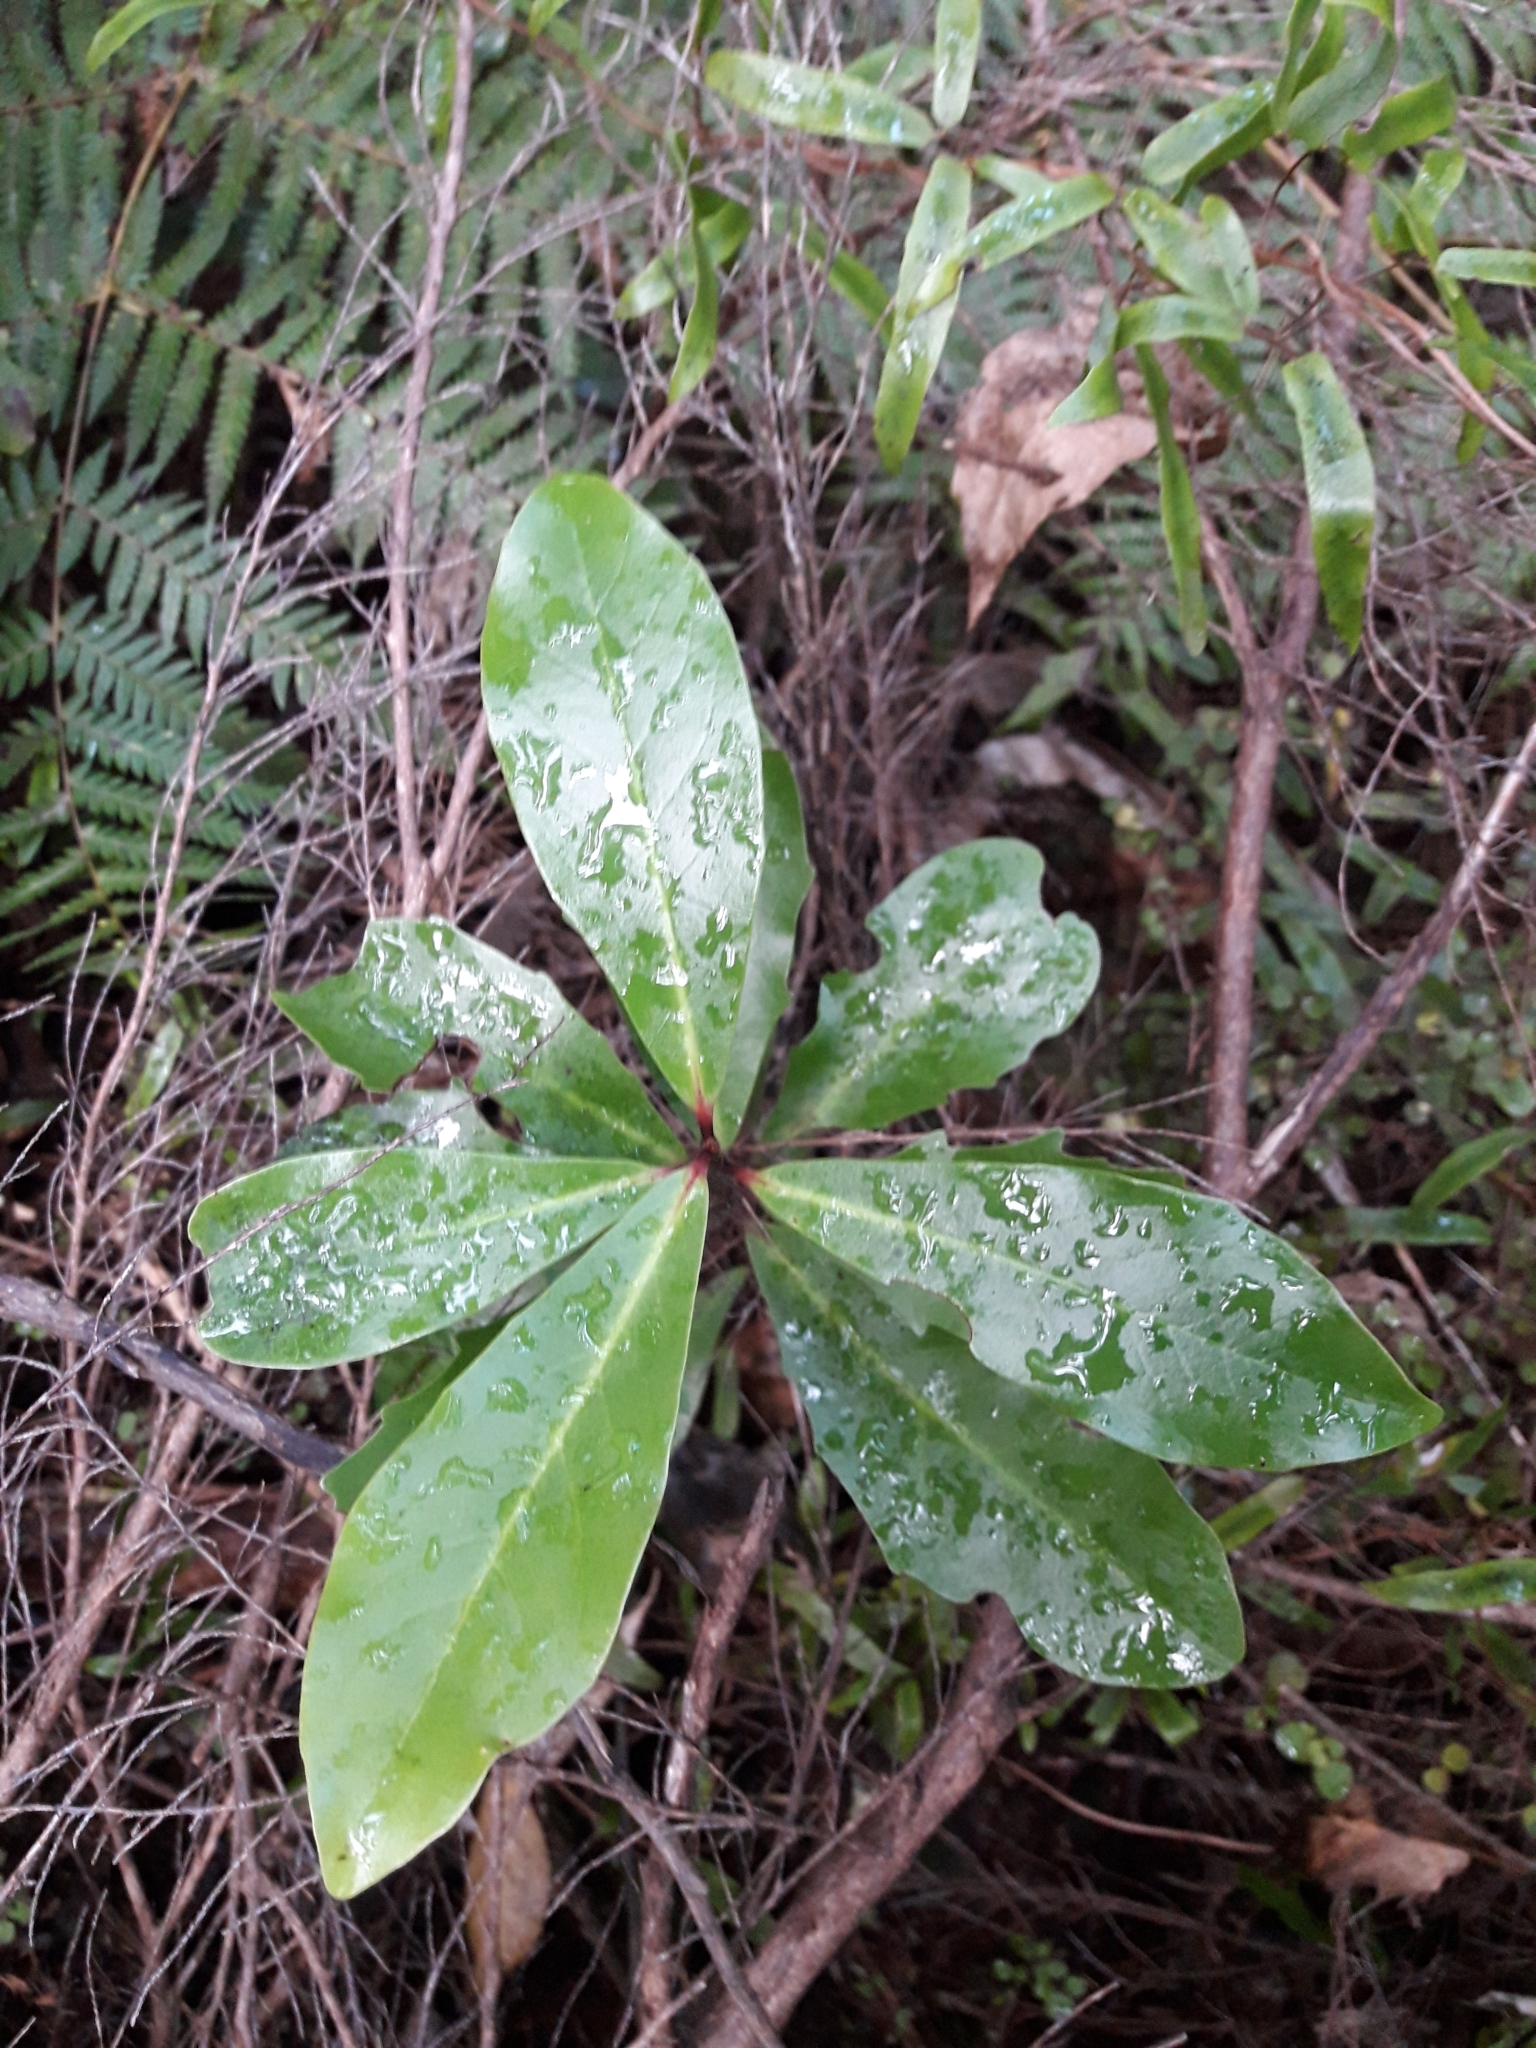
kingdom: Plantae
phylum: Tracheophyta
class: Magnoliopsida
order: Asterales
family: Alseuosmiaceae
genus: Alseuosmia
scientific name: Alseuosmia quercifolia
